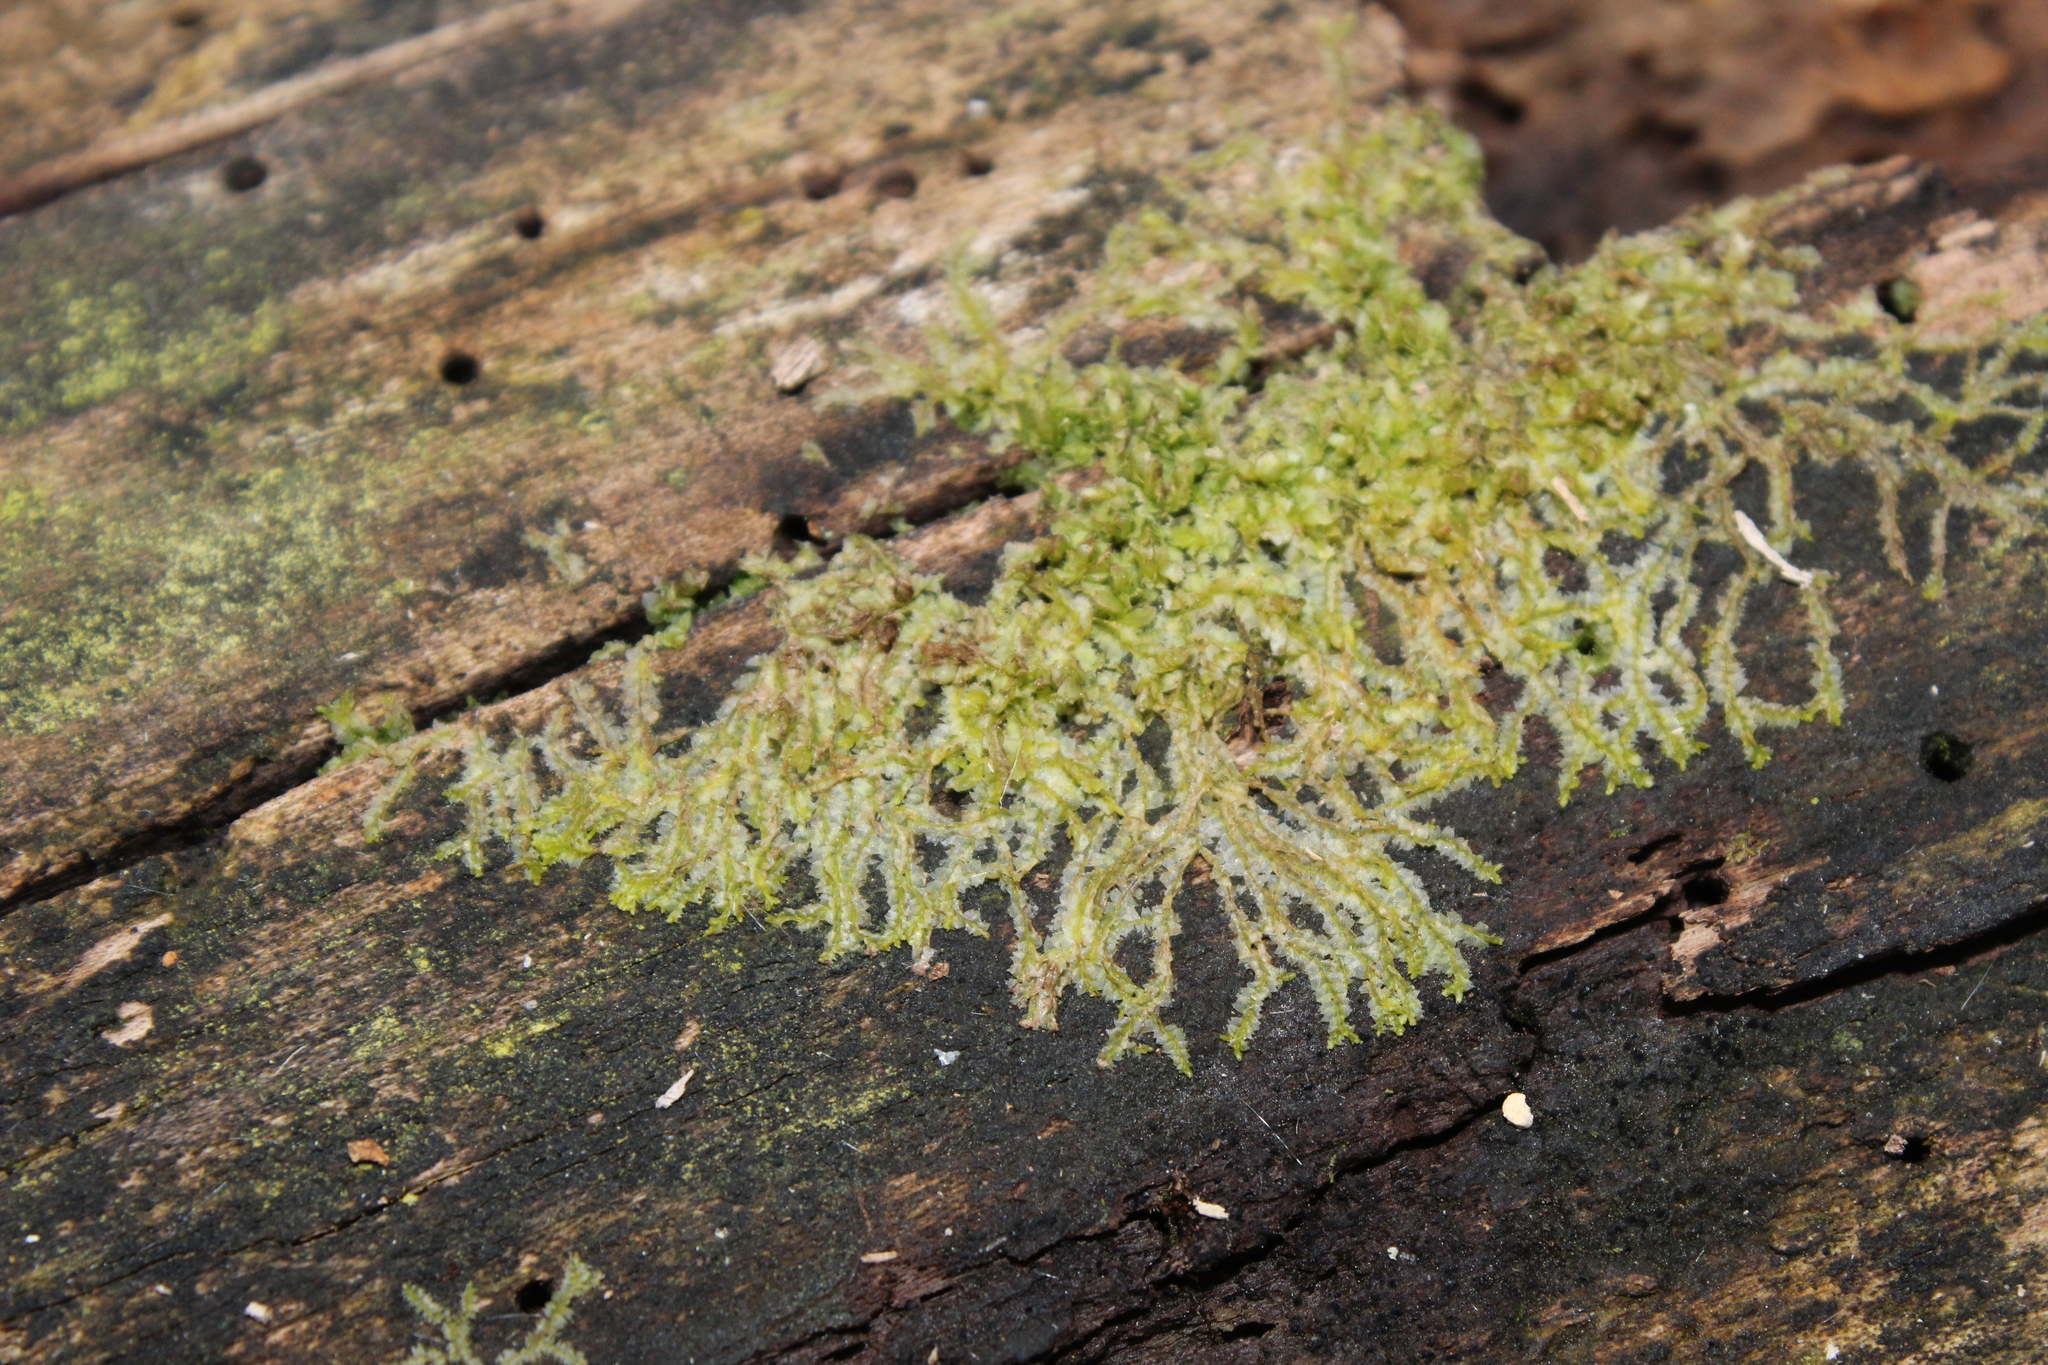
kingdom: Plantae
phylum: Marchantiophyta
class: Jungermanniopsida
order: Jungermanniales
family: Lophocoleaceae
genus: Lophocolea
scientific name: Lophocolea heterophylla
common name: Variable-leaved crestwort
